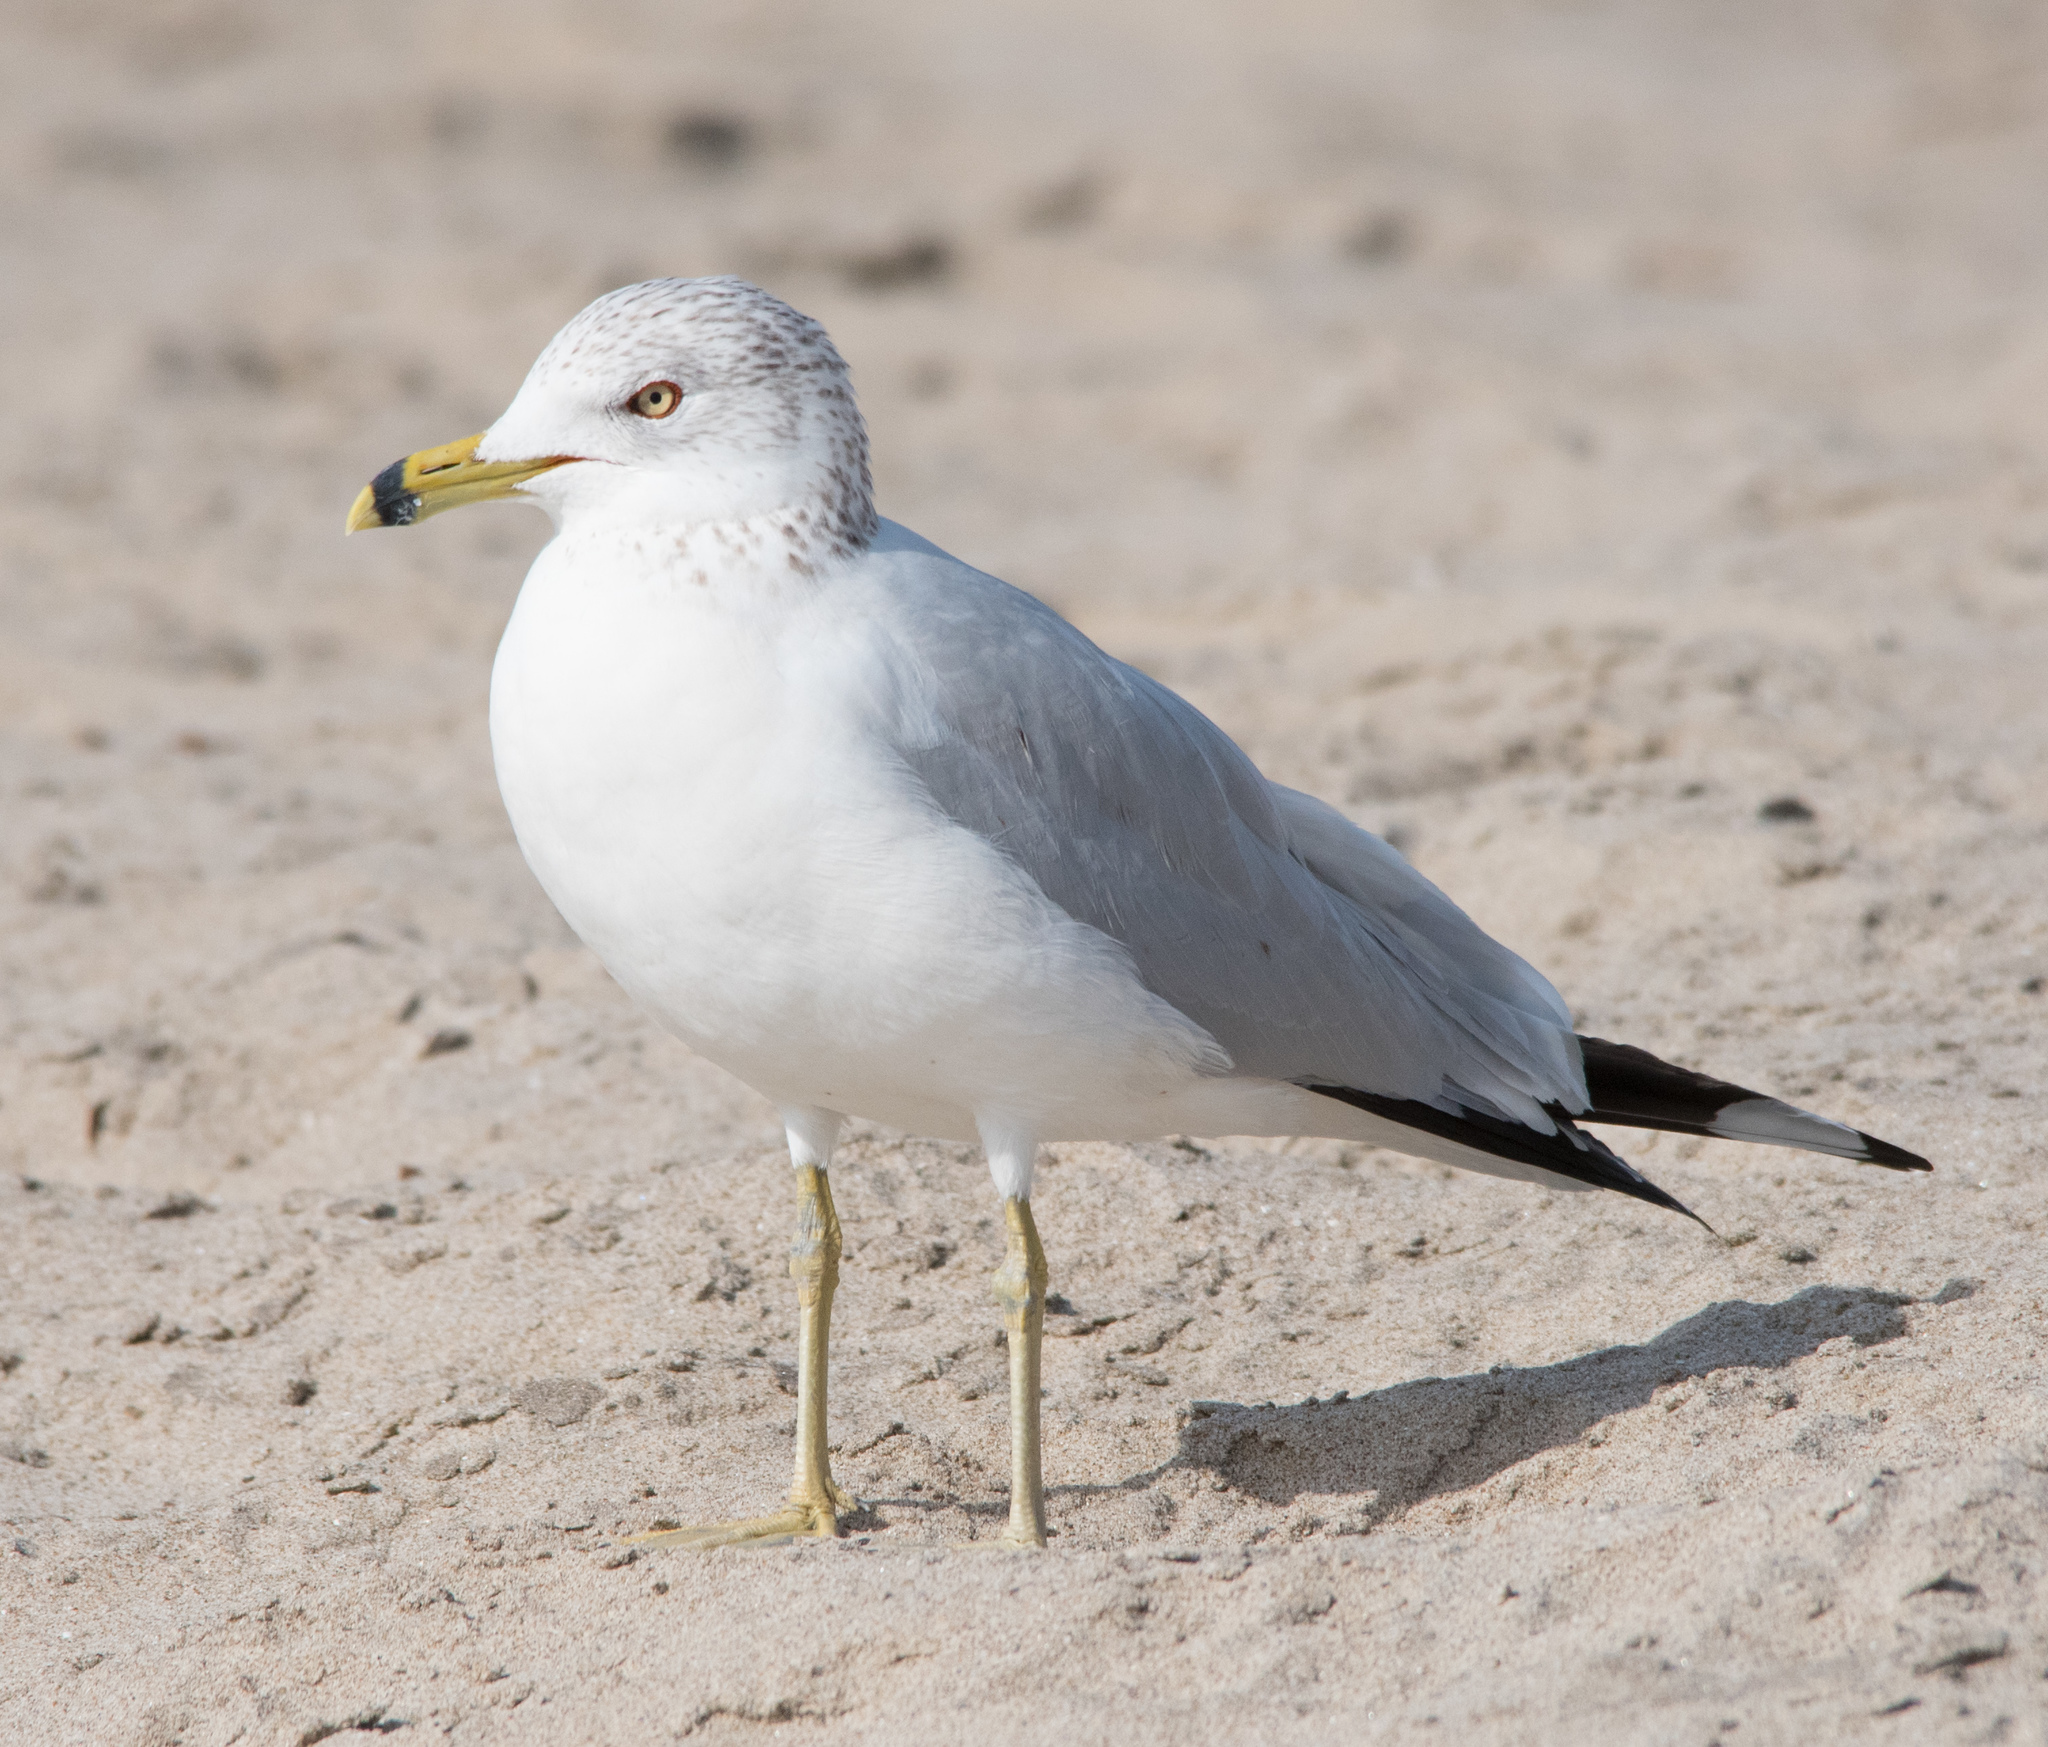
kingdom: Animalia
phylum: Chordata
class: Aves
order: Charadriiformes
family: Laridae
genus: Larus
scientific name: Larus delawarensis
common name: Ring-billed gull
